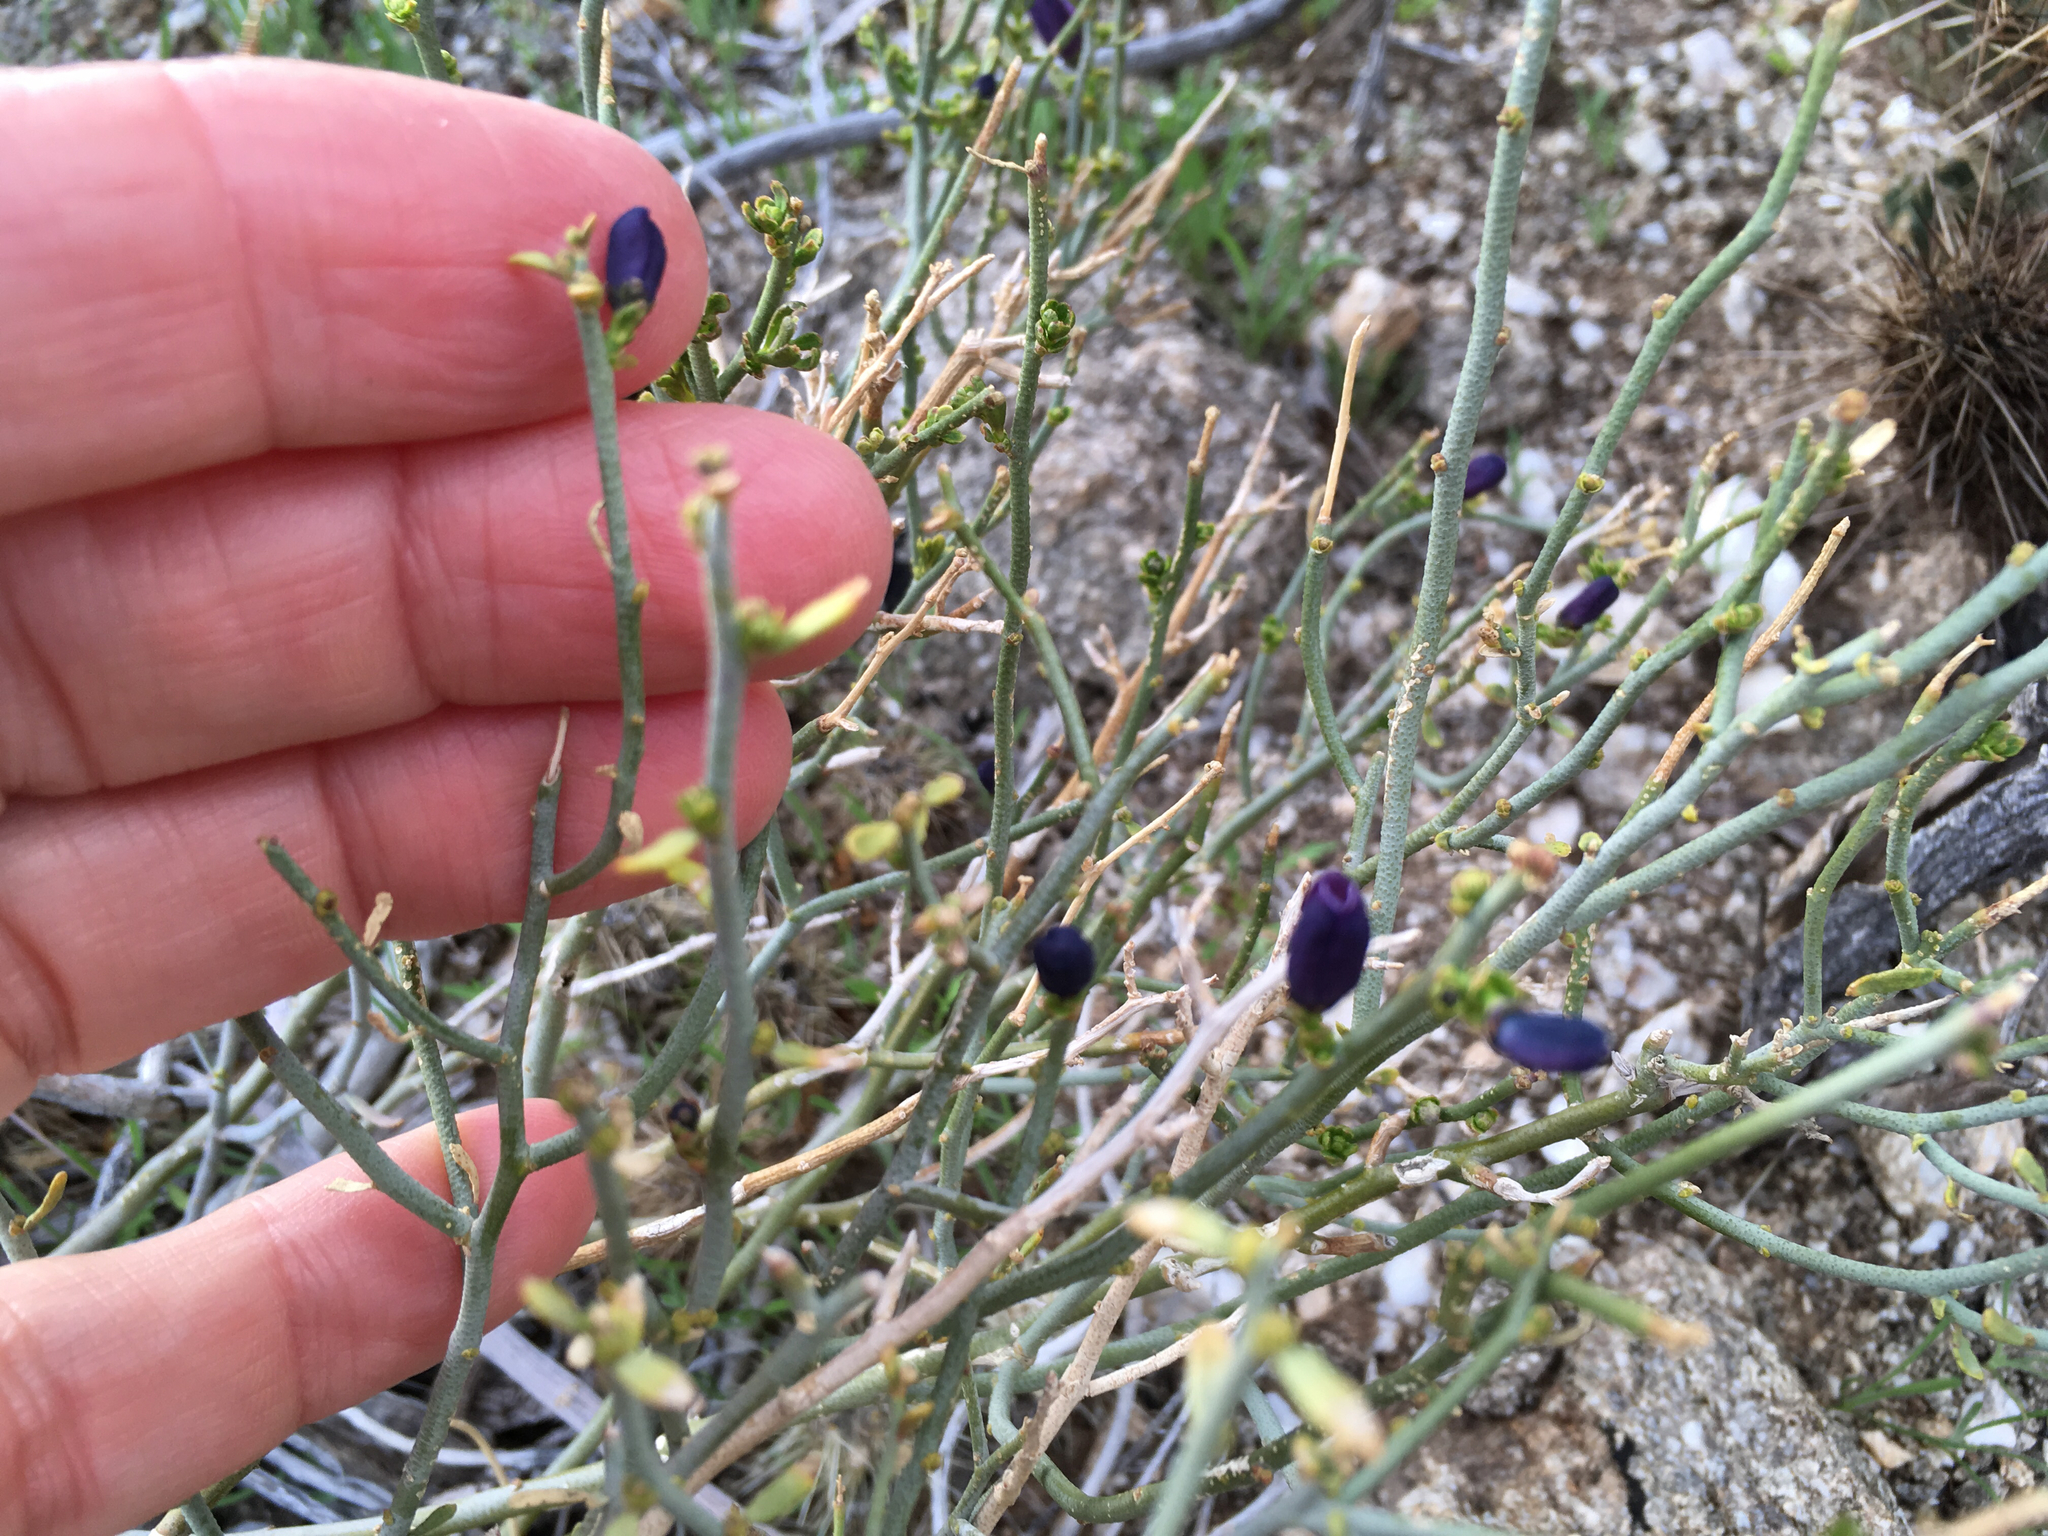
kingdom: Plantae
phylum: Tracheophyta
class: Magnoliopsida
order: Sapindales
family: Rutaceae
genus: Thamnosma
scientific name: Thamnosma montana
